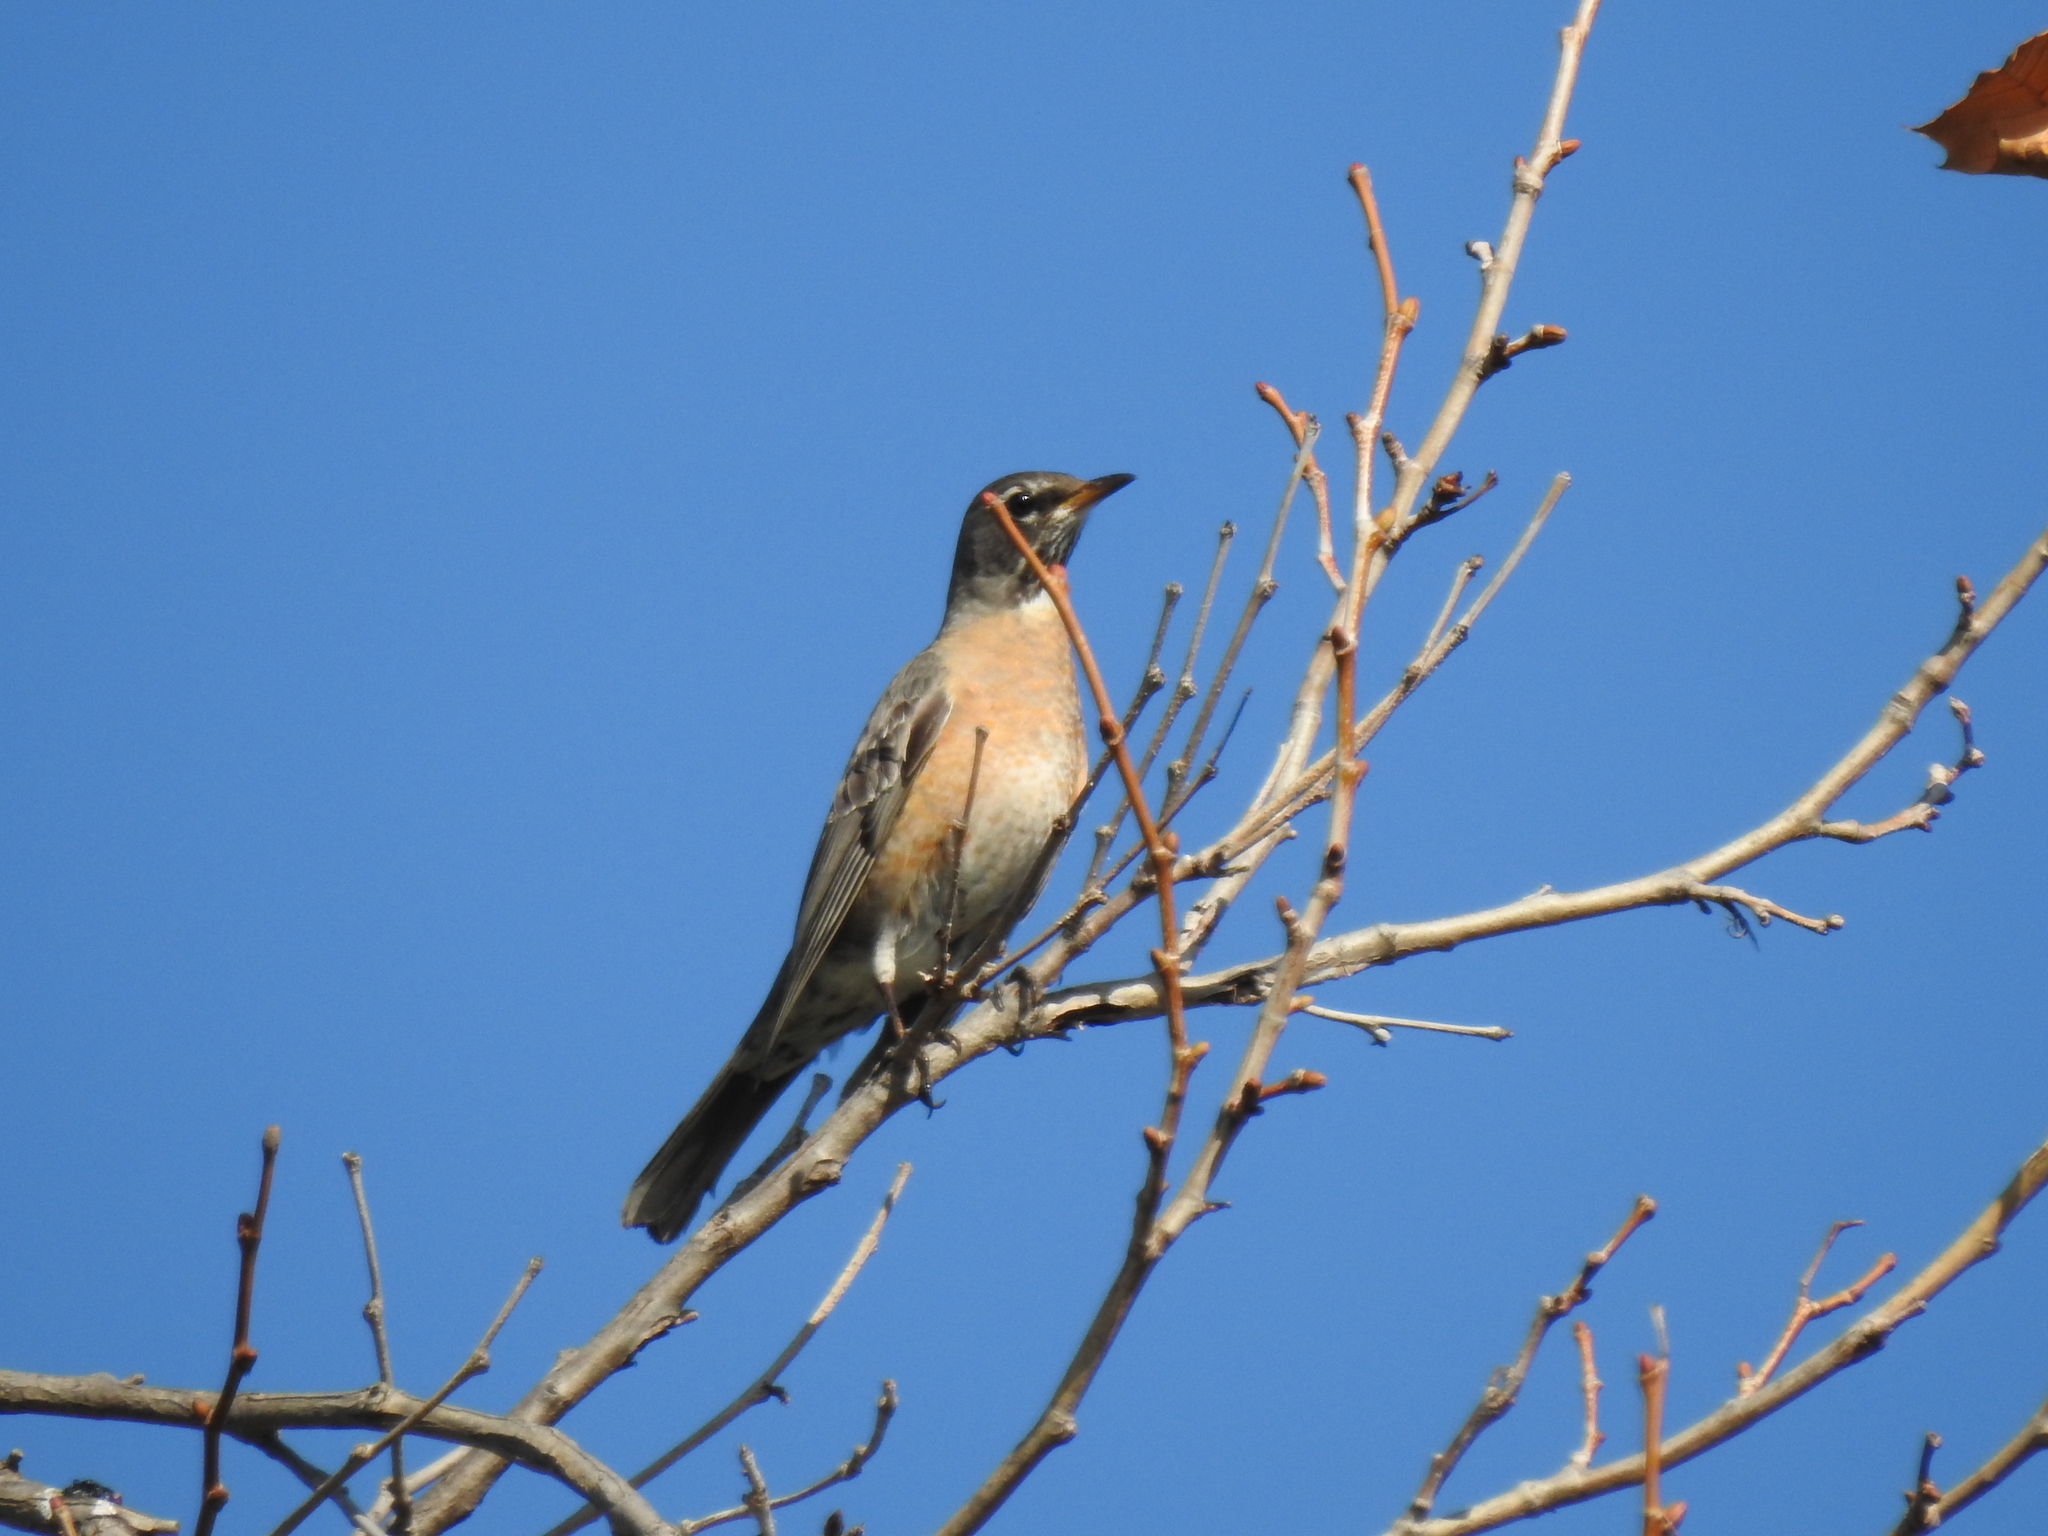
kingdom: Animalia
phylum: Chordata
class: Aves
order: Passeriformes
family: Turdidae
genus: Turdus
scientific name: Turdus migratorius
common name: American robin
